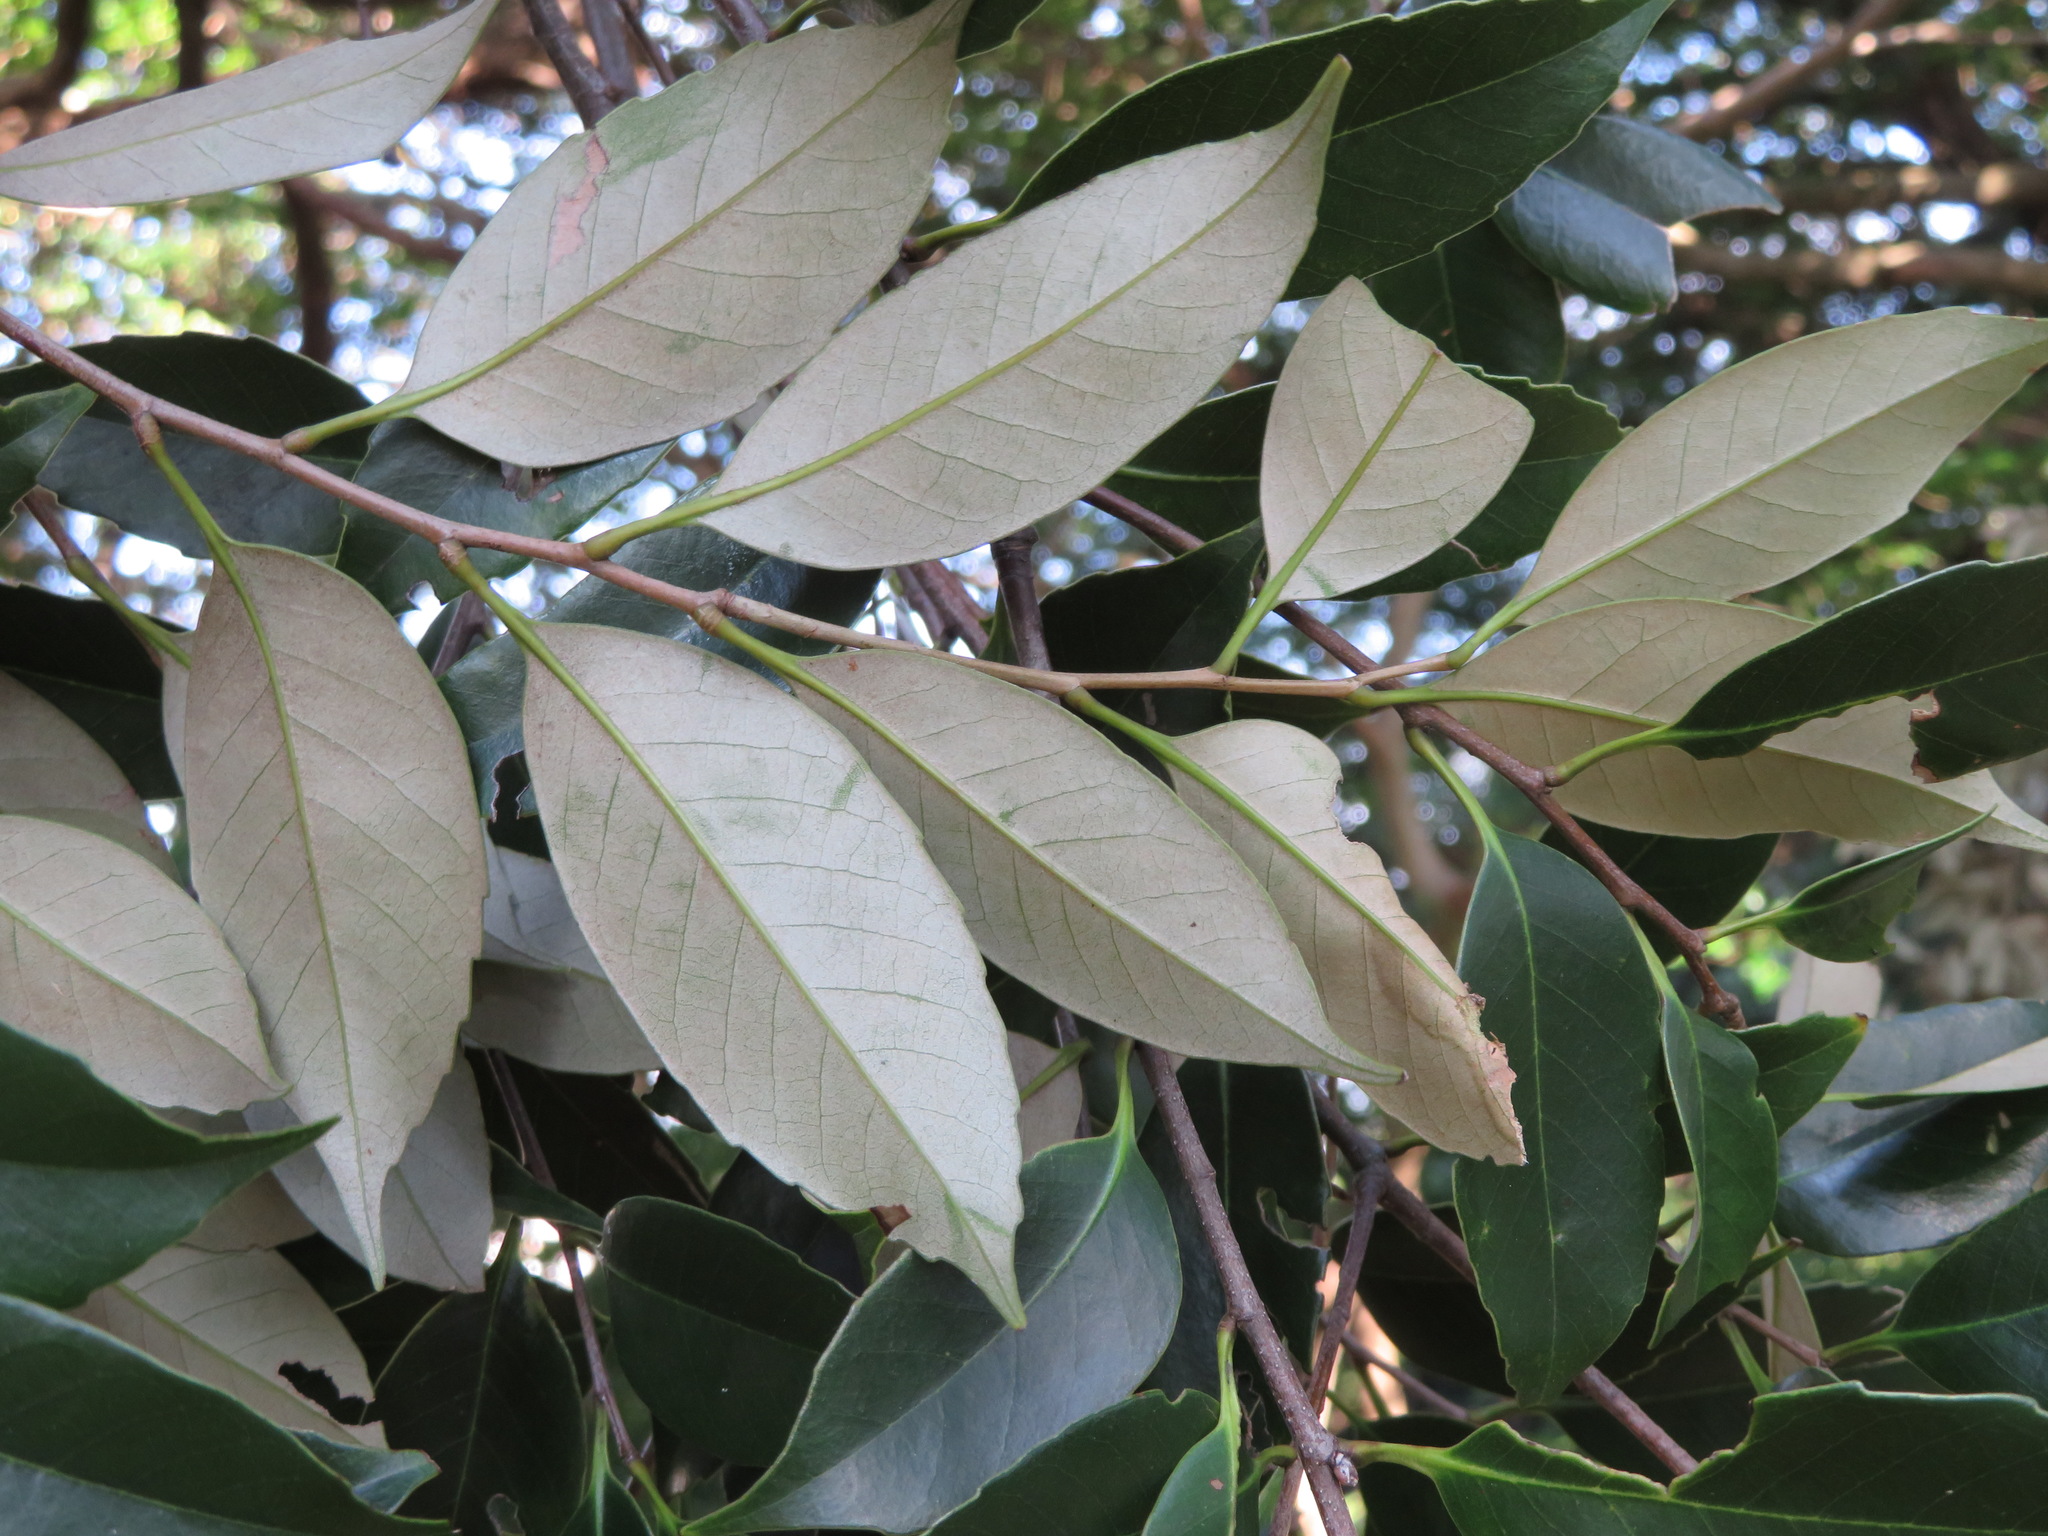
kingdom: Plantae
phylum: Tracheophyta
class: Magnoliopsida
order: Fagales
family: Fagaceae
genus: Castanopsis
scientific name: Castanopsis sieboldii
